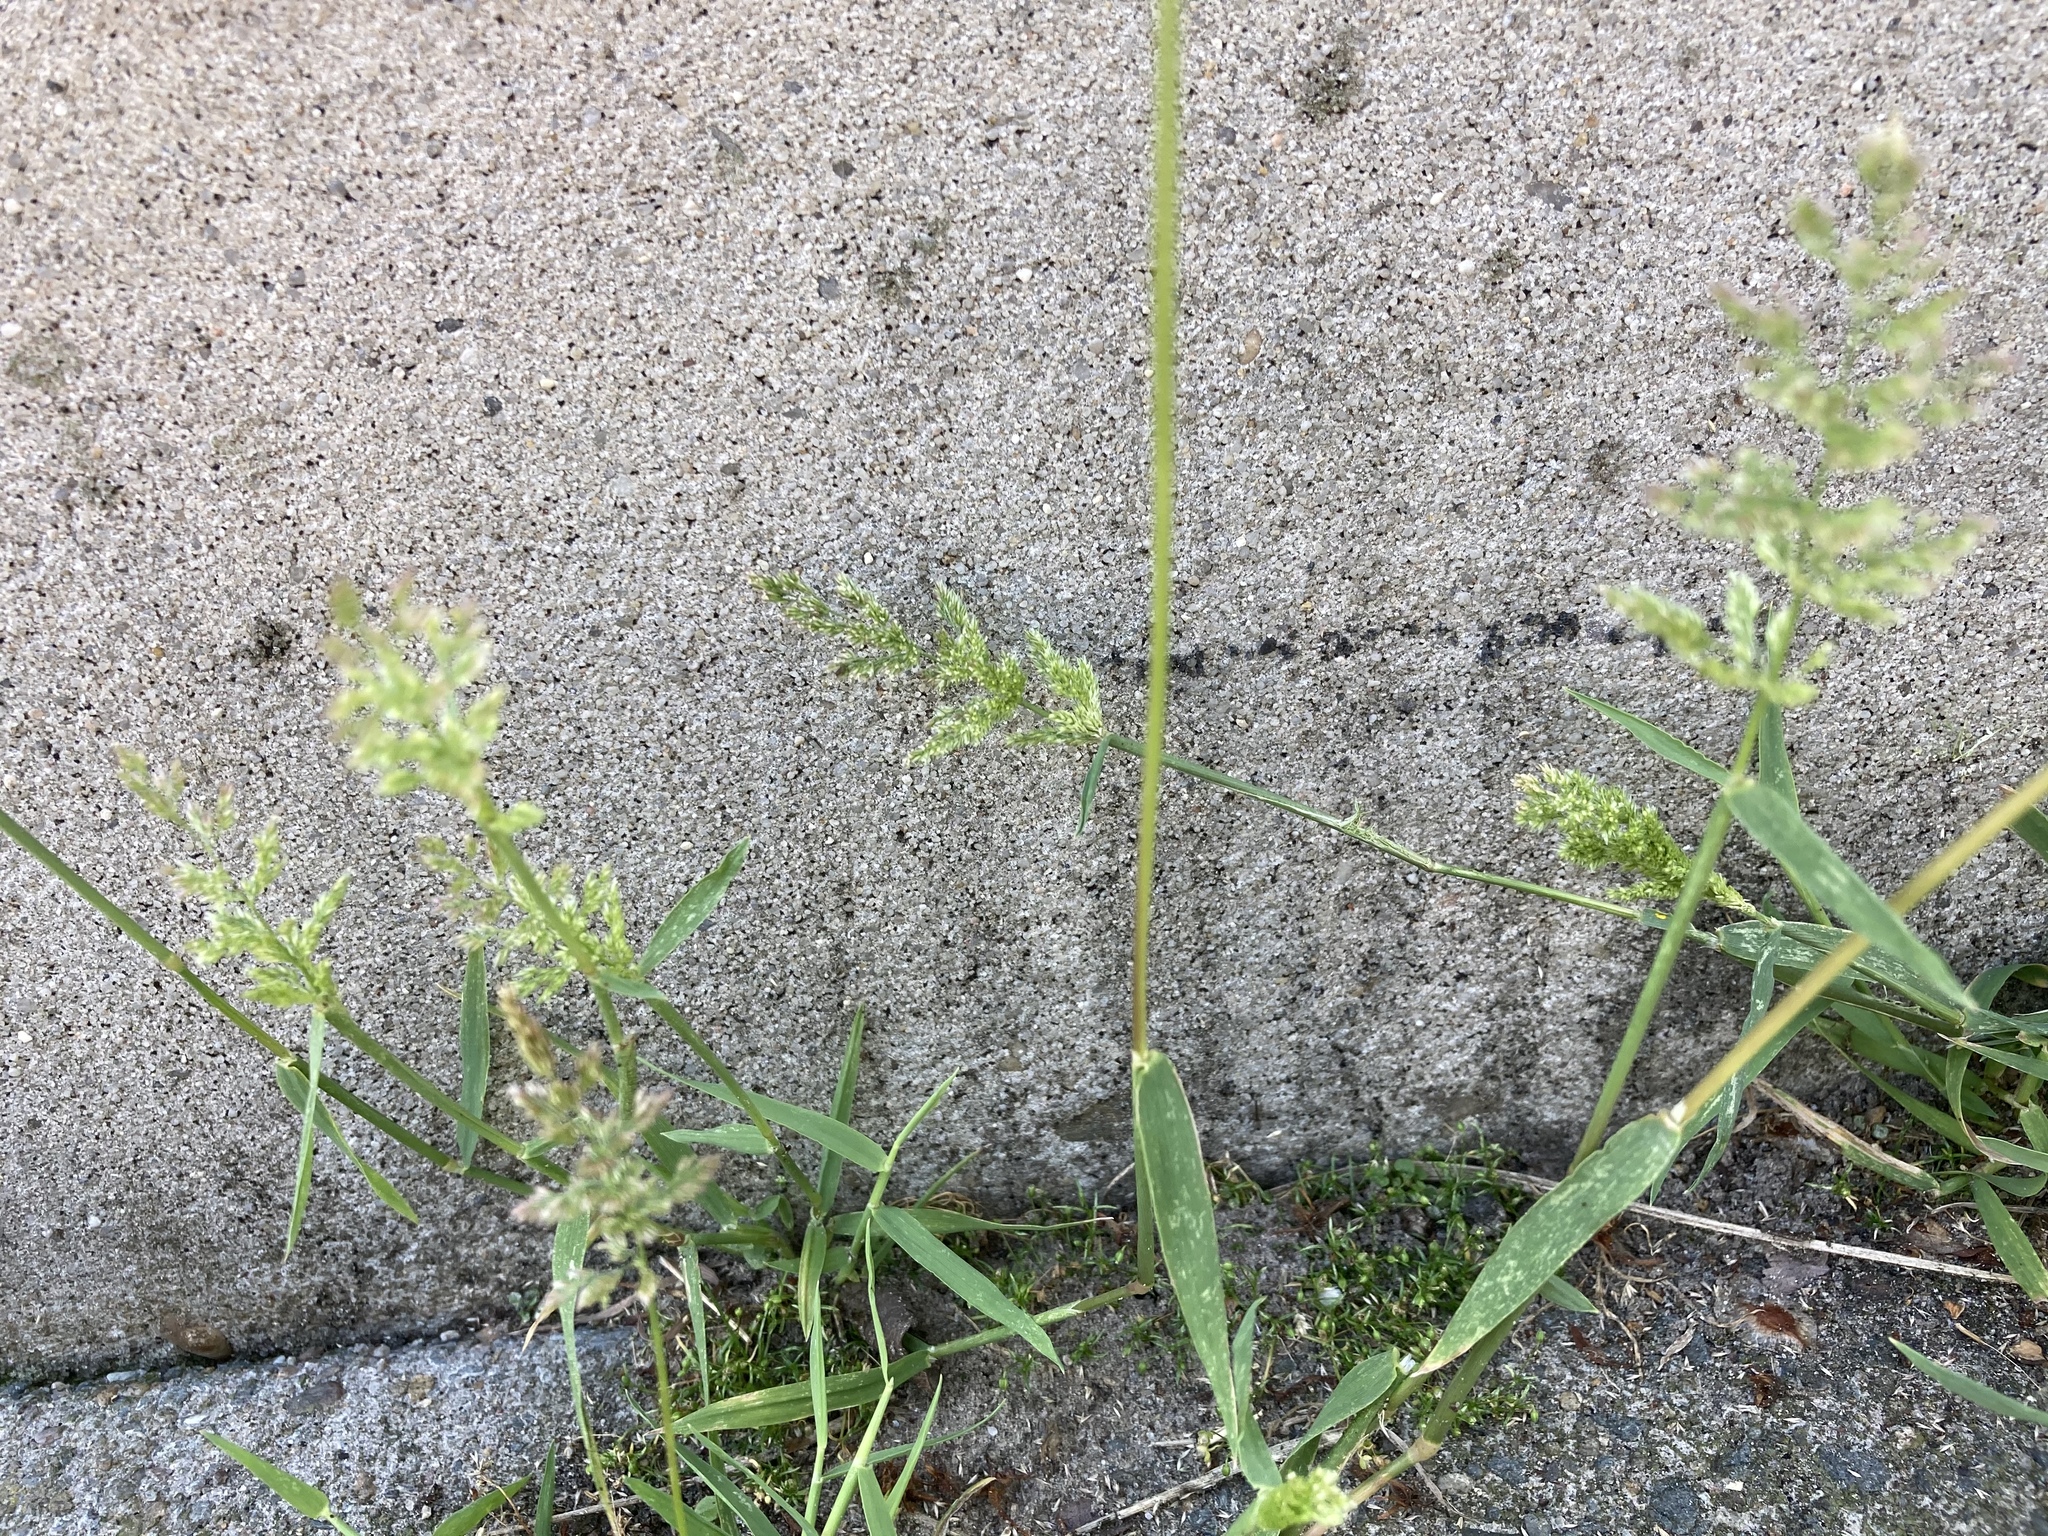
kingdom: Plantae
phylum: Tracheophyta
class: Liliopsida
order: Poales
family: Poaceae
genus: Polypogon
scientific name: Polypogon viridis
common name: Water bent
